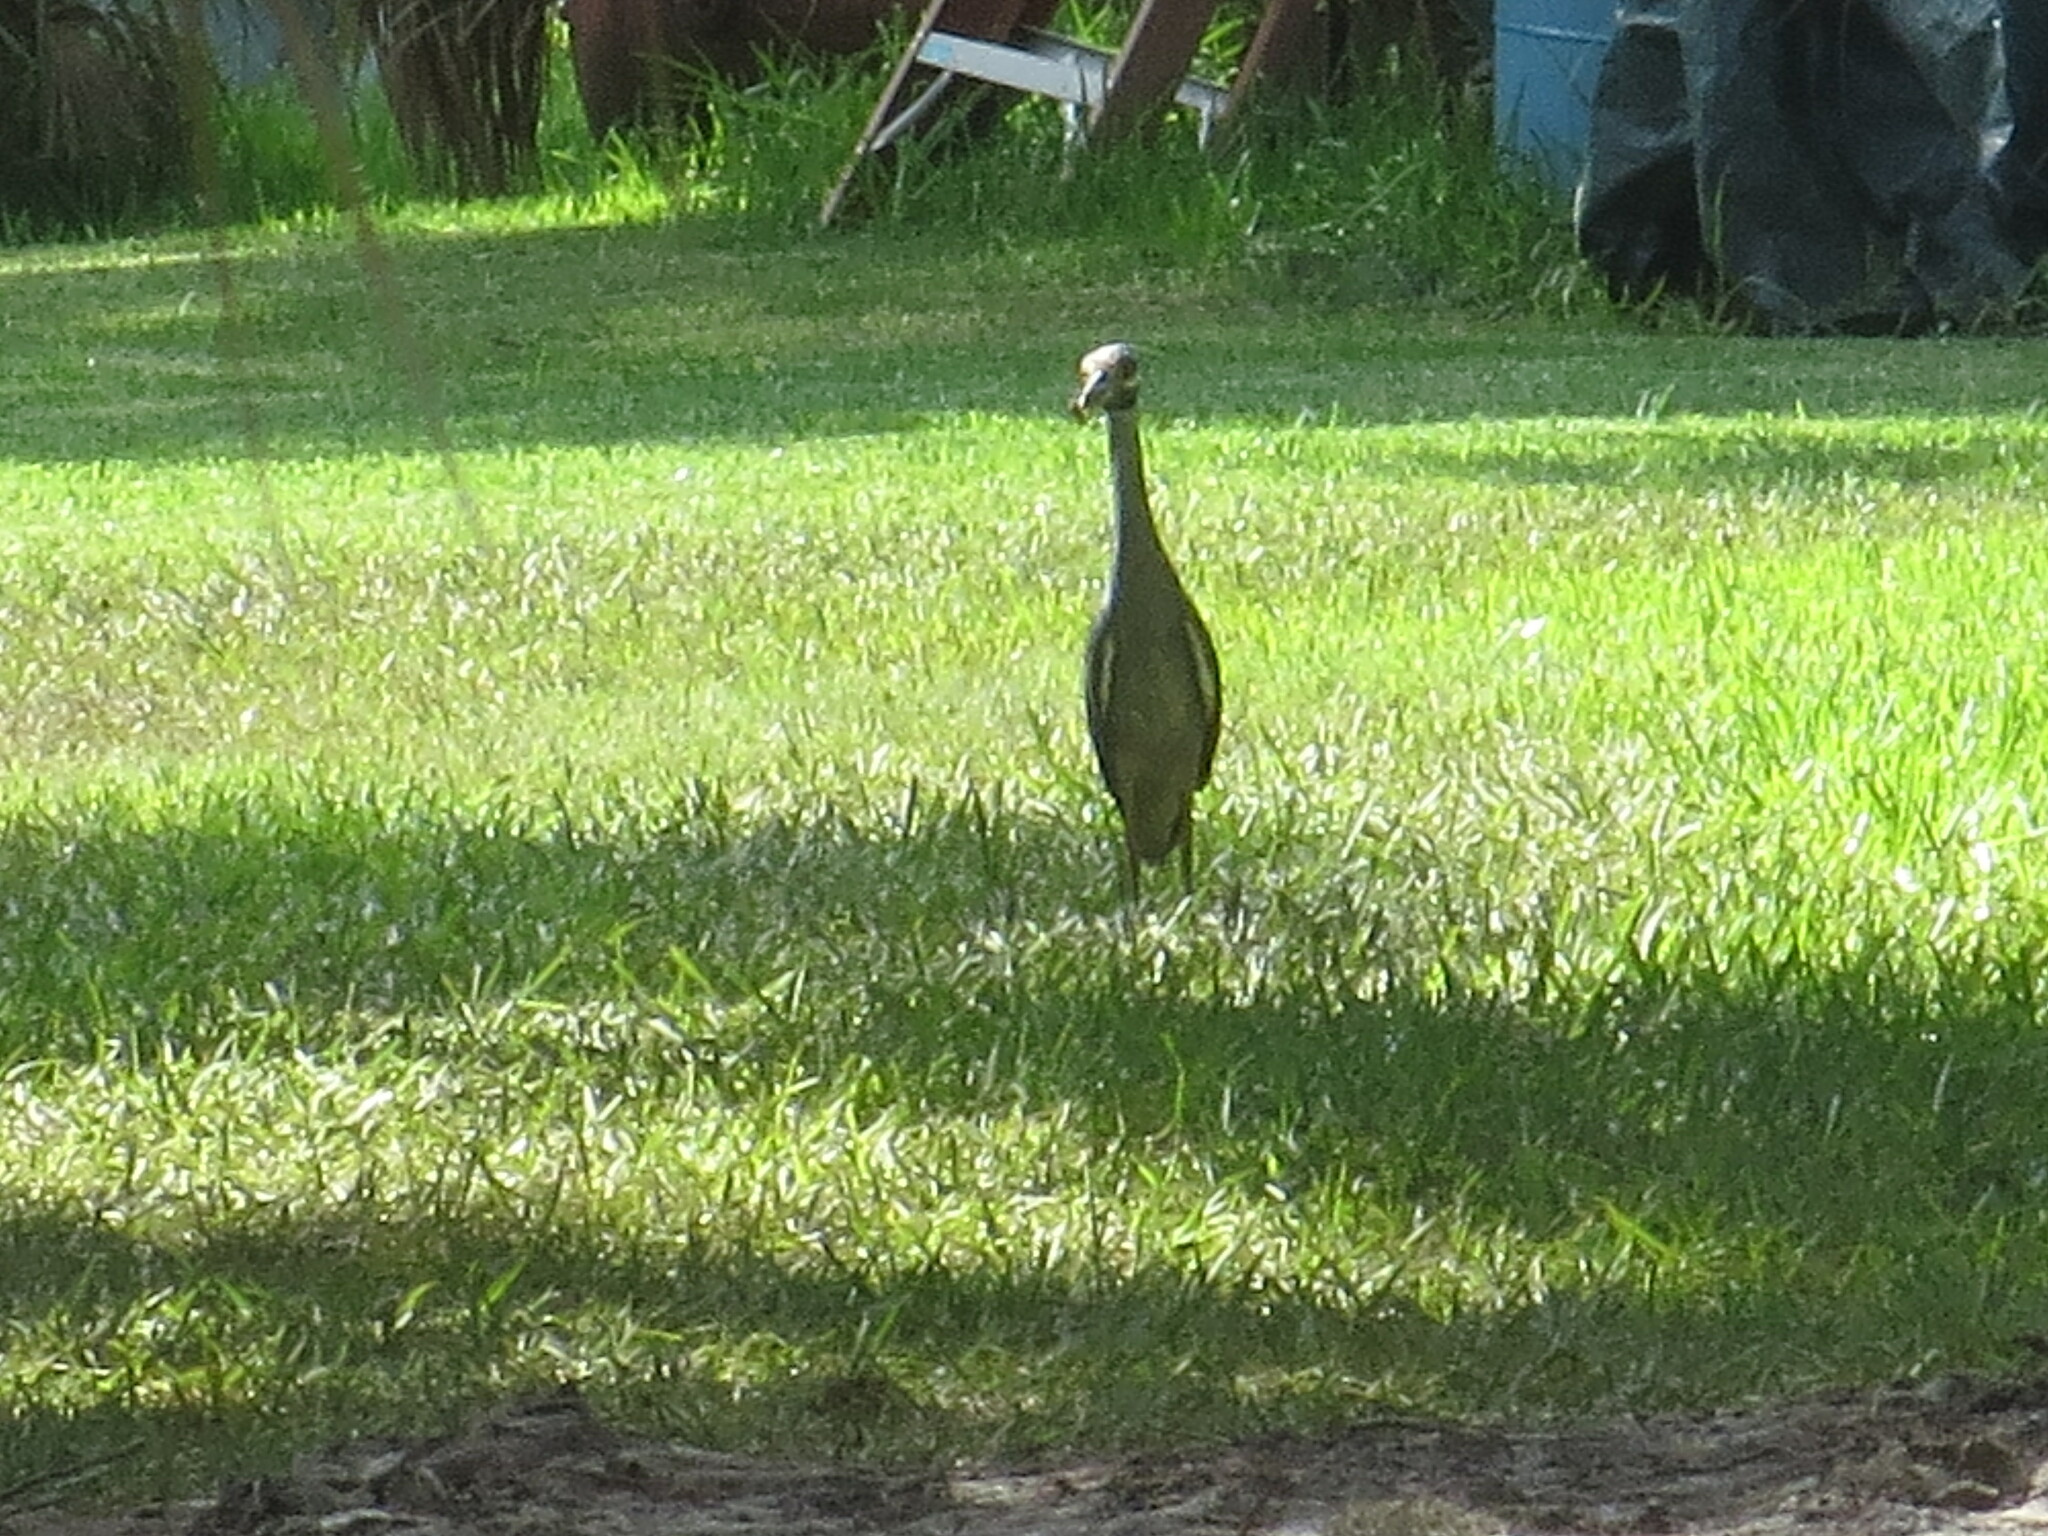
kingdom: Animalia
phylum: Chordata
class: Aves
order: Pelecaniformes
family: Ardeidae
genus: Nyctanassa
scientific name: Nyctanassa violacea
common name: Yellow-crowned night heron
